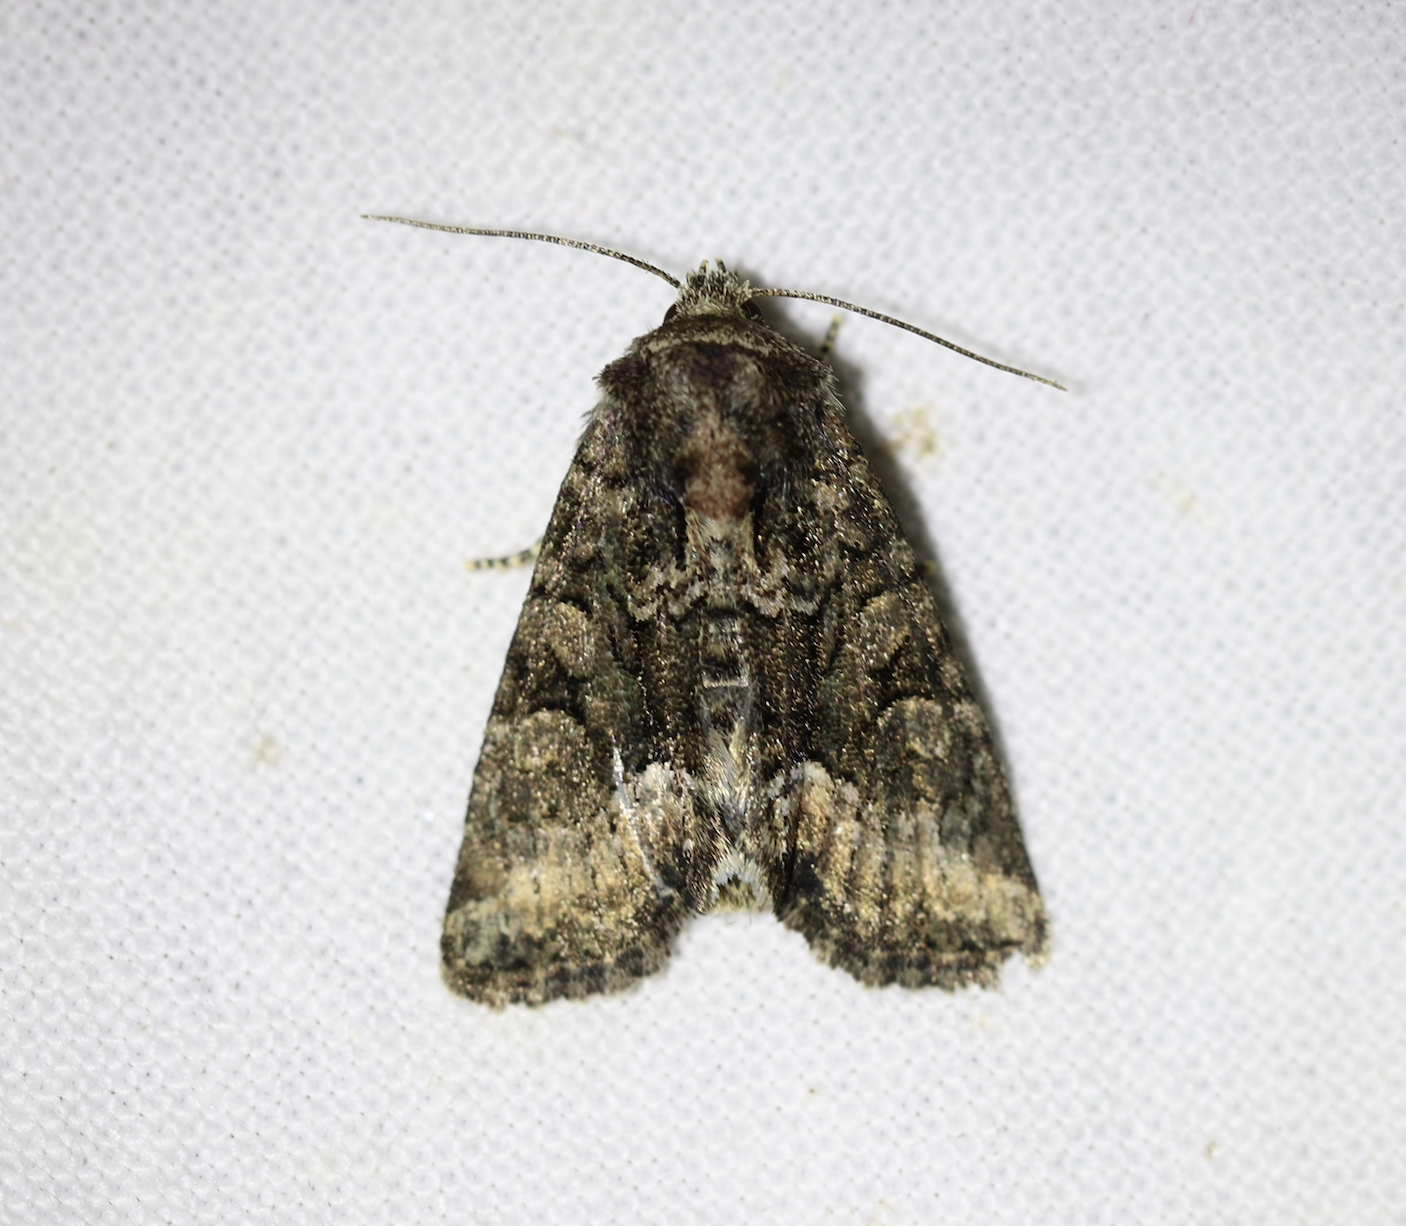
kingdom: Animalia
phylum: Arthropoda
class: Insecta
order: Lepidoptera
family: Noctuidae
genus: Oligia
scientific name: Oligia latruncula
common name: Tawny marbled minor
